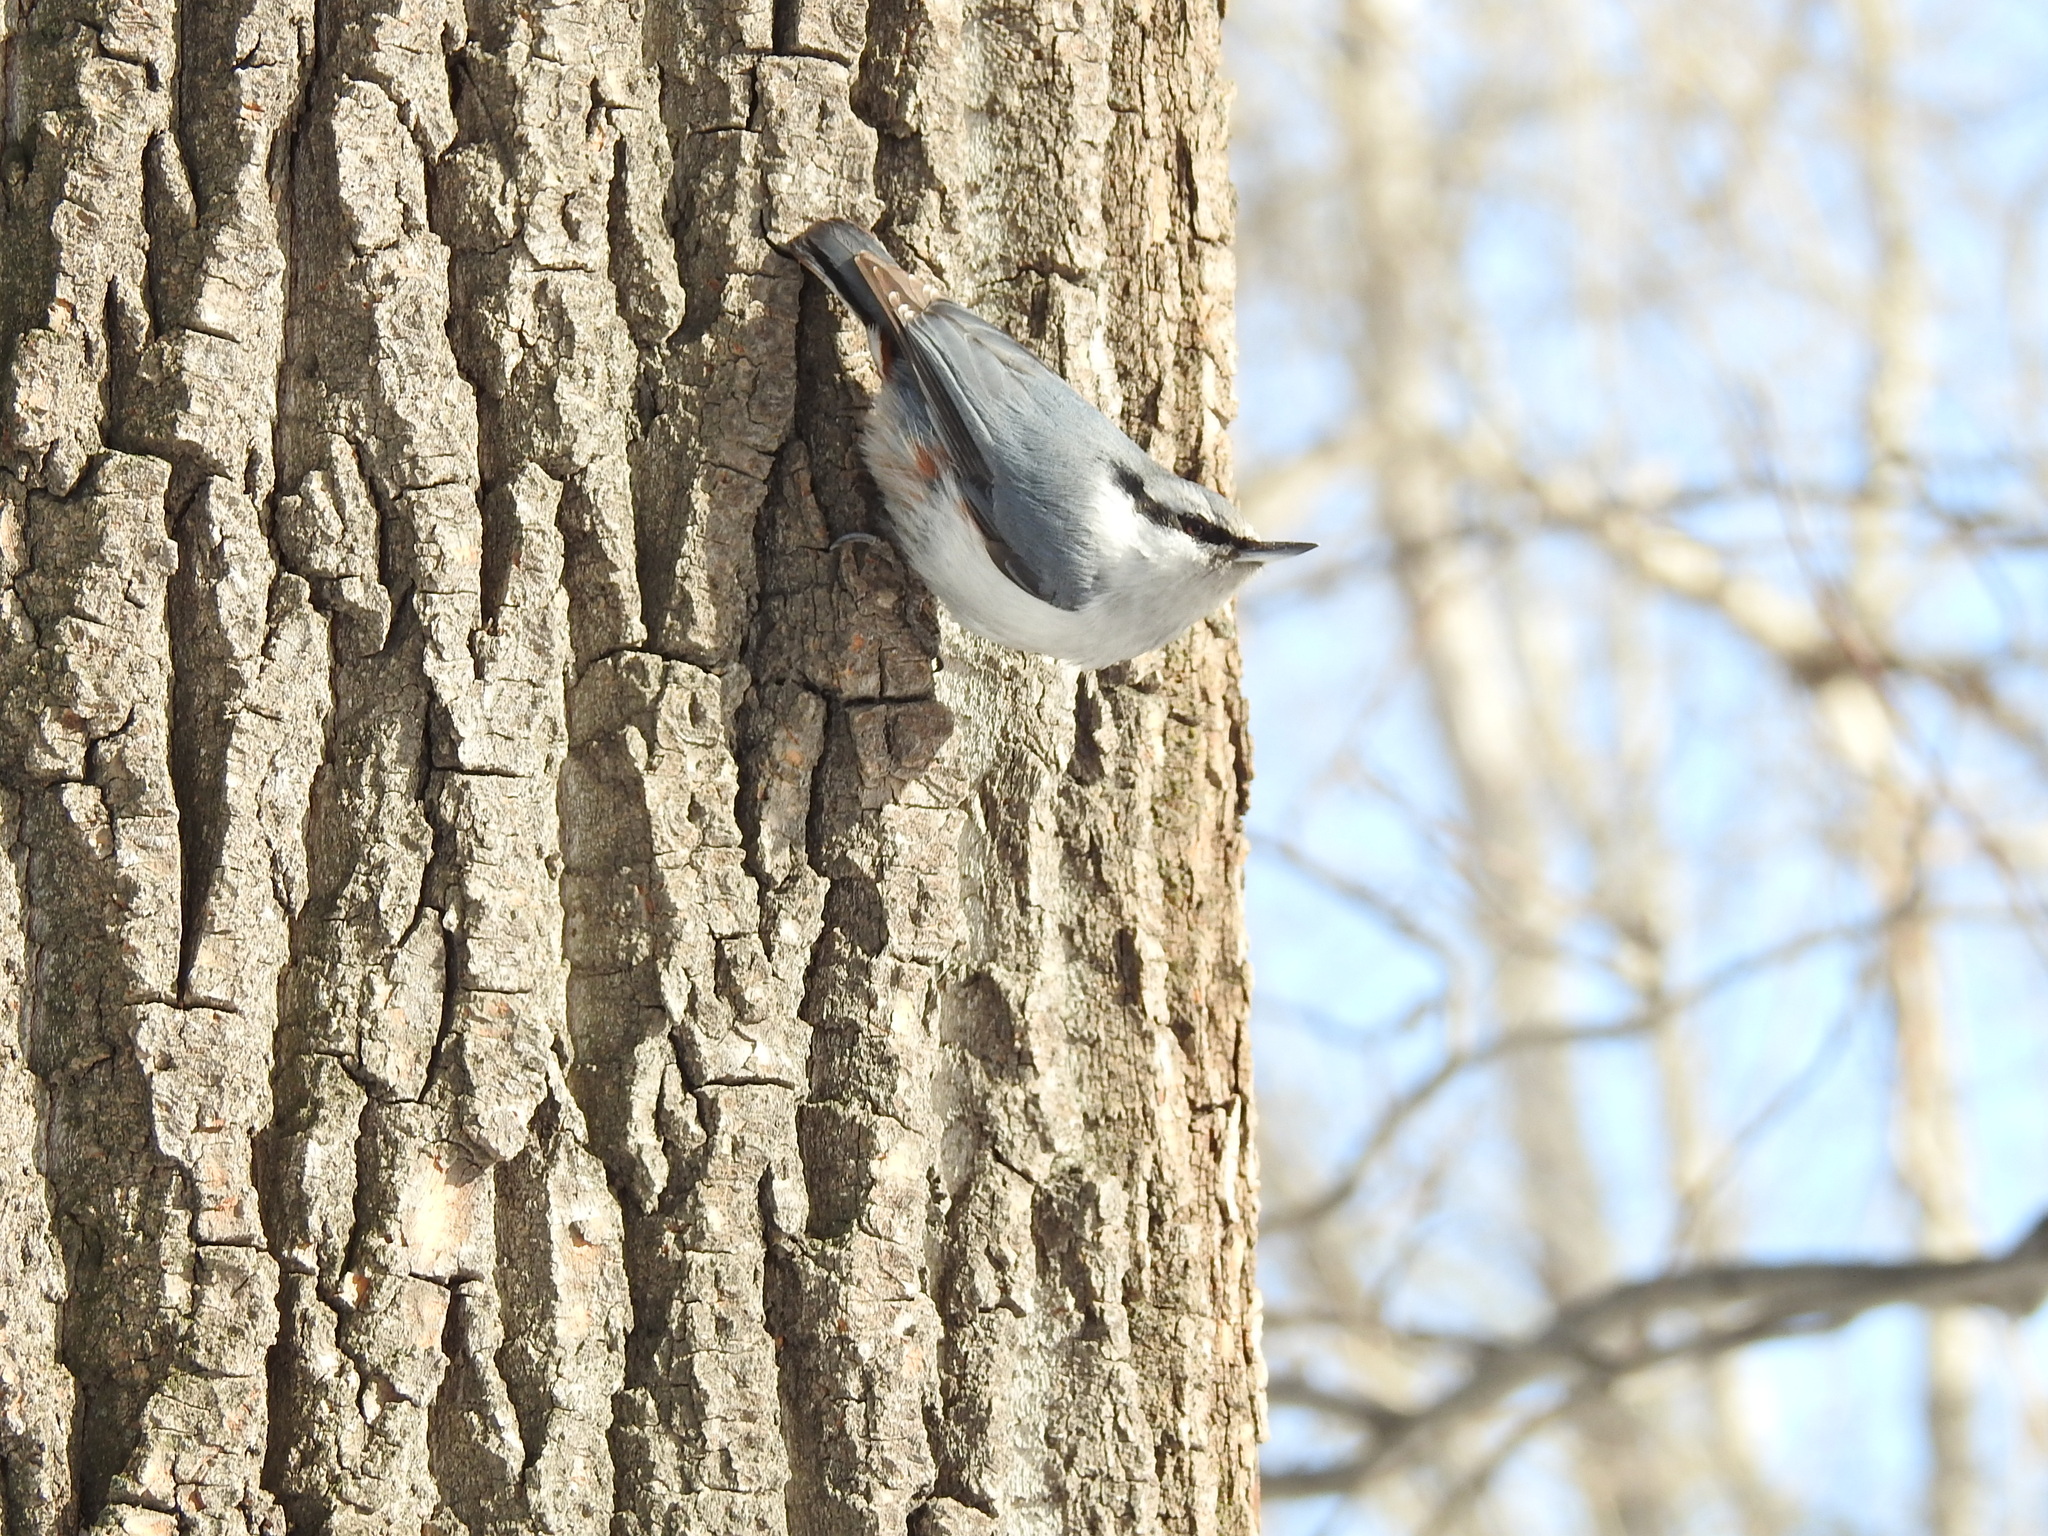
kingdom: Animalia
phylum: Chordata
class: Aves
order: Passeriformes
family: Sittidae
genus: Sitta
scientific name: Sitta europaea
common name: Eurasian nuthatch
